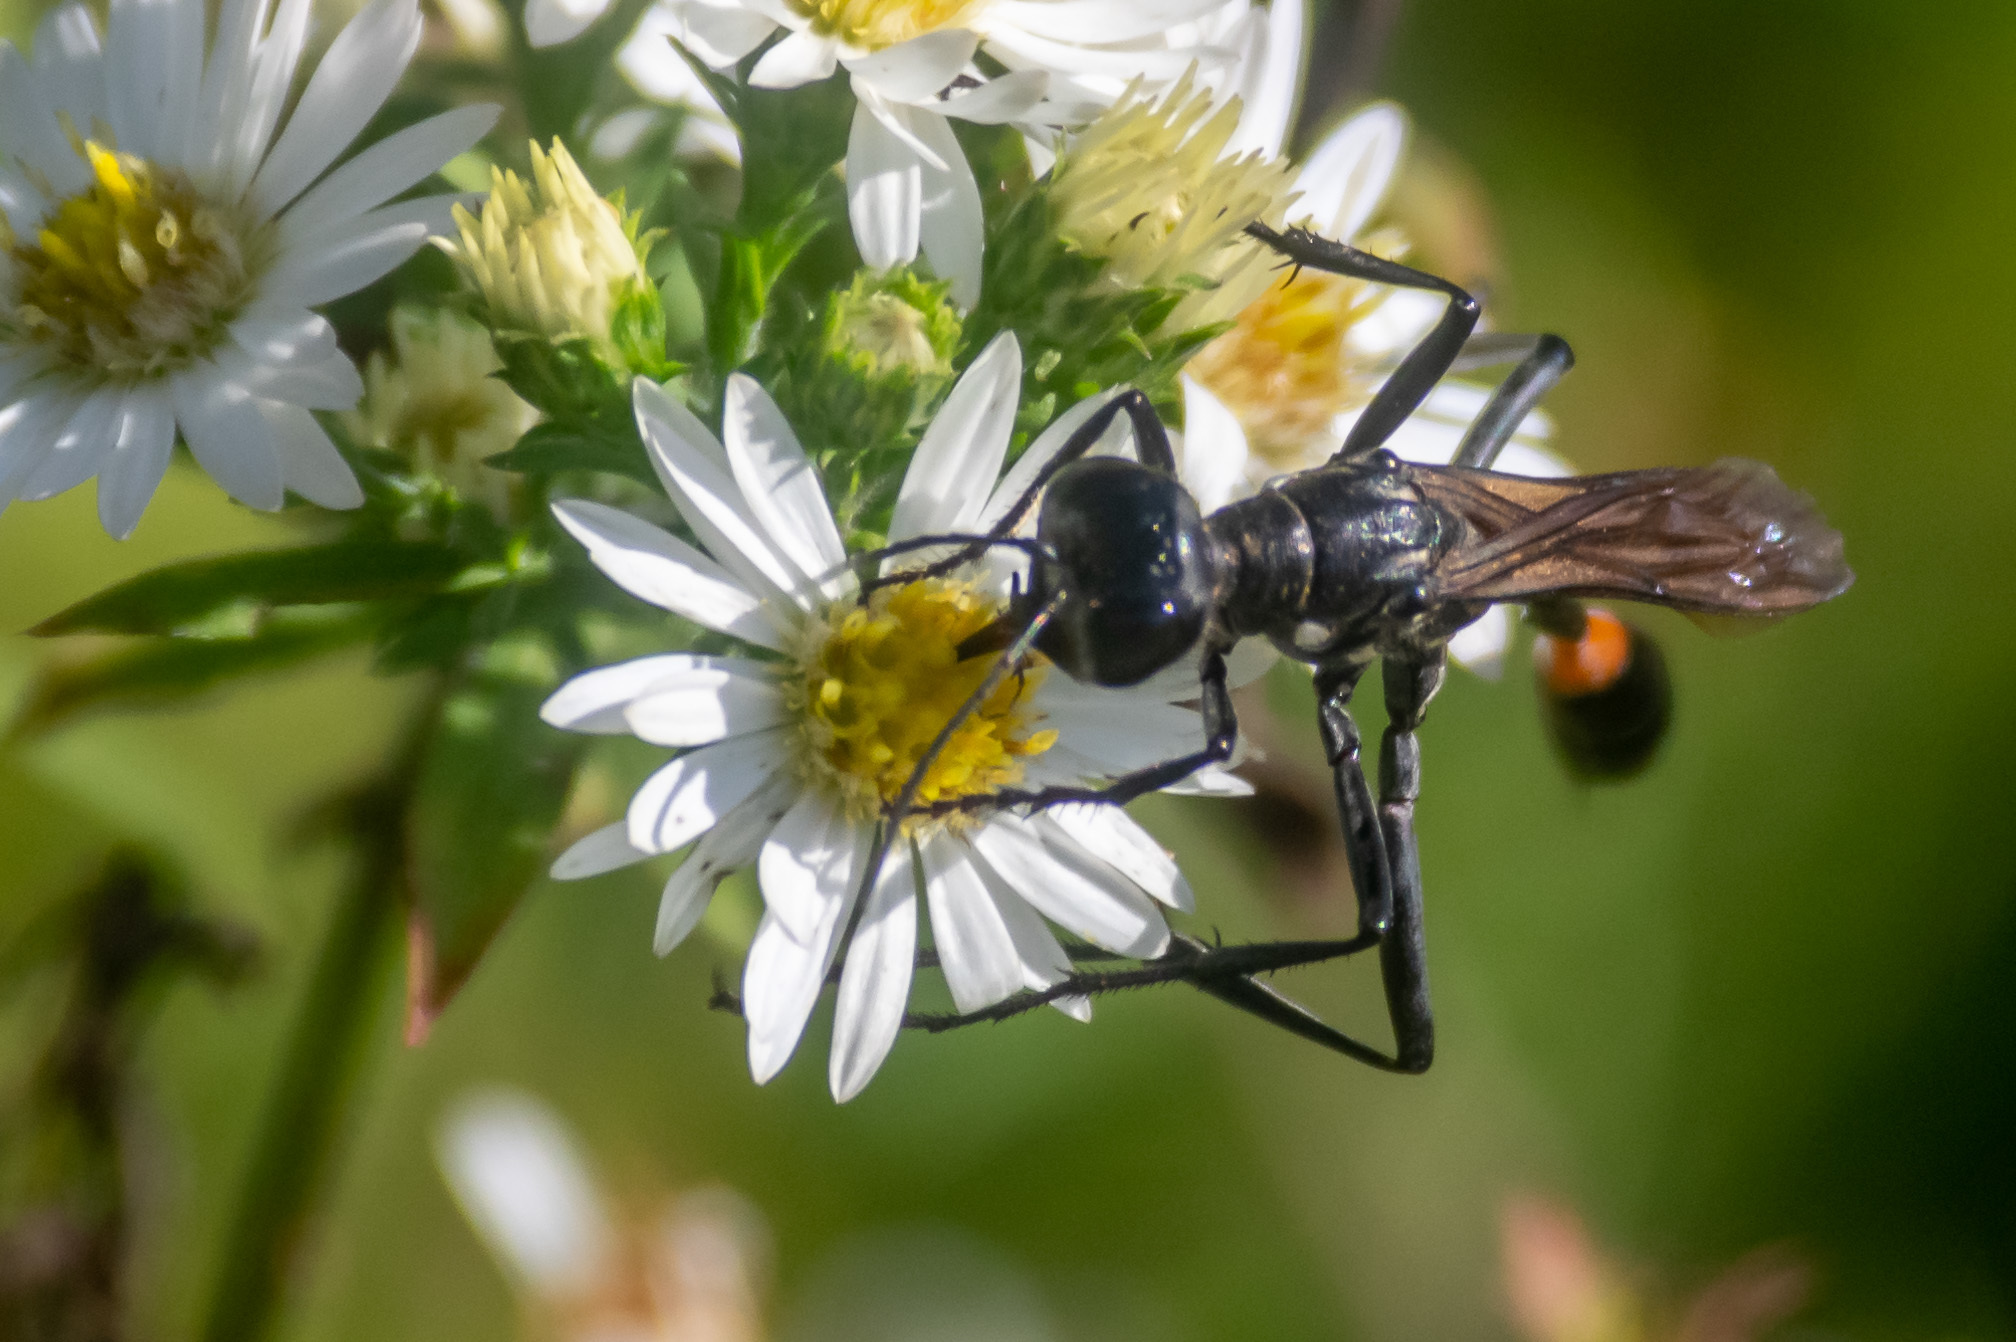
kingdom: Animalia
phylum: Arthropoda
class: Insecta
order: Hymenoptera
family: Sphecidae
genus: Ammophila
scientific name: Ammophila procera
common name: Common thread-waisted wasp
